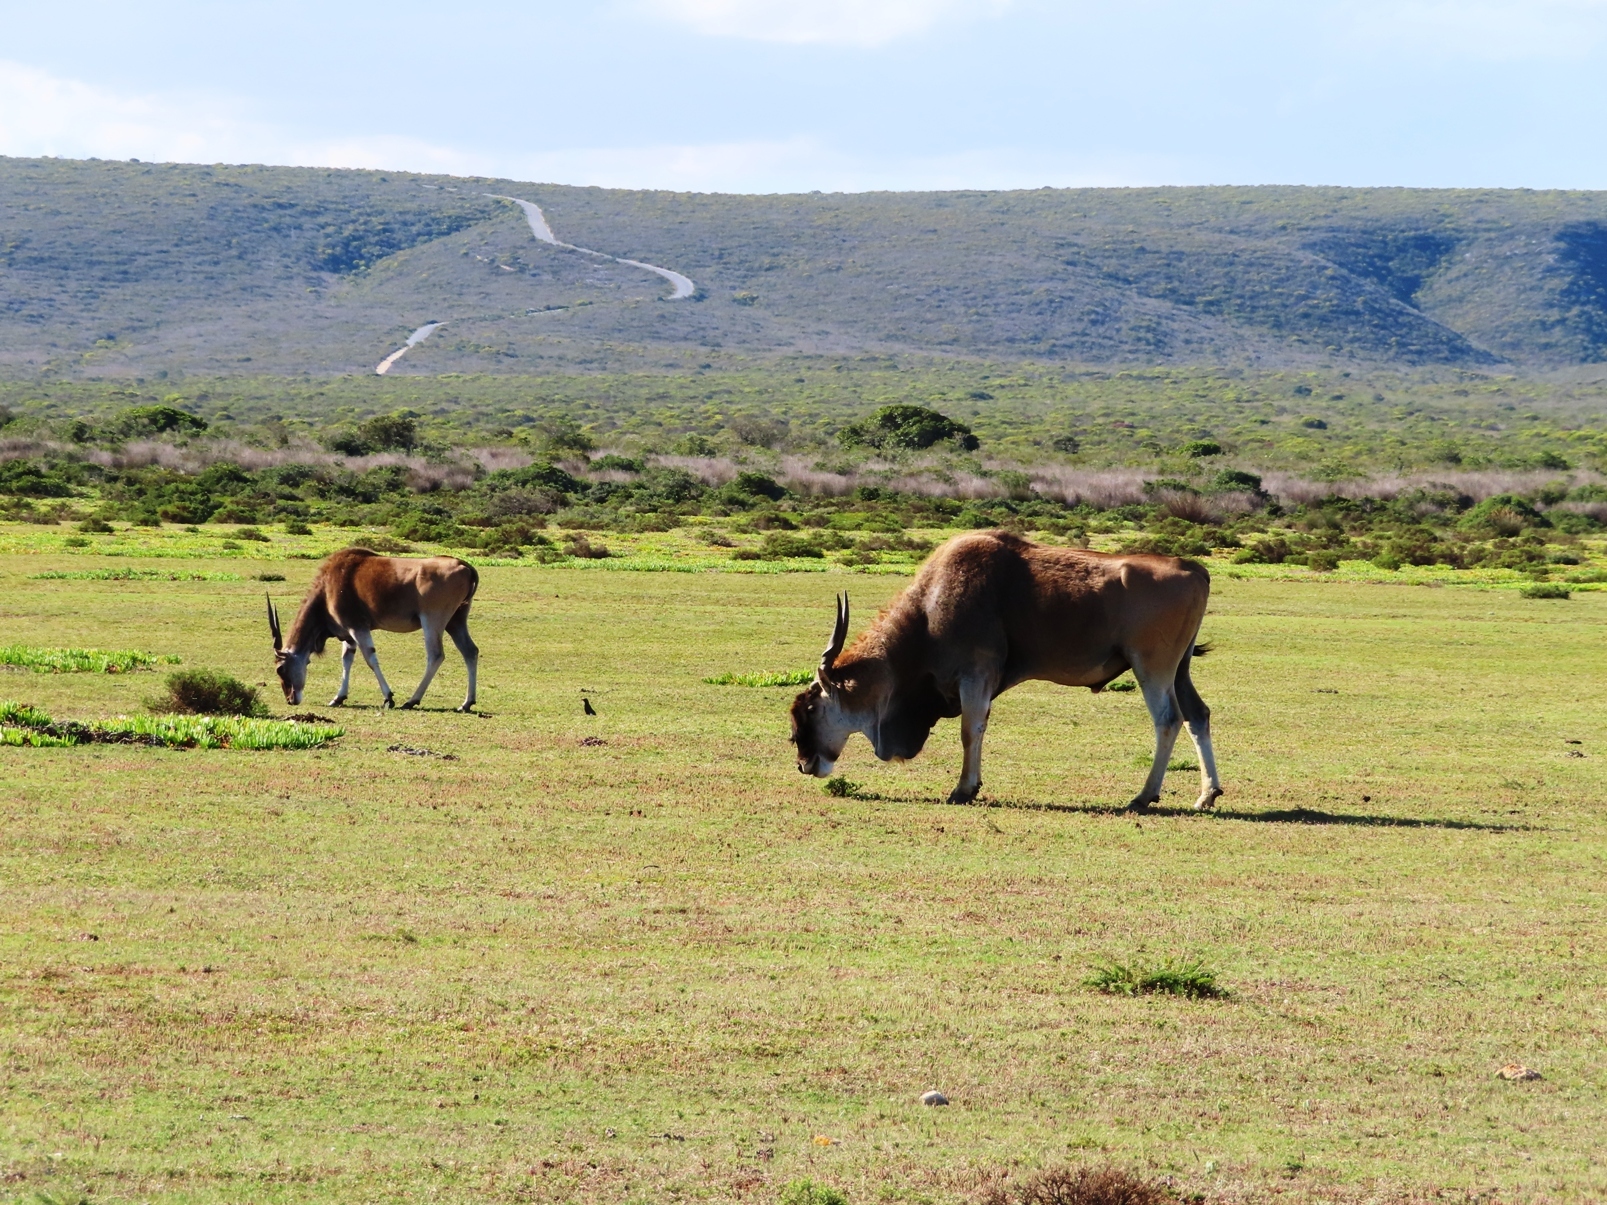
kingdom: Animalia
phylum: Chordata
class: Mammalia
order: Artiodactyla
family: Bovidae
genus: Taurotragus
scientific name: Taurotragus oryx
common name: Common eland
